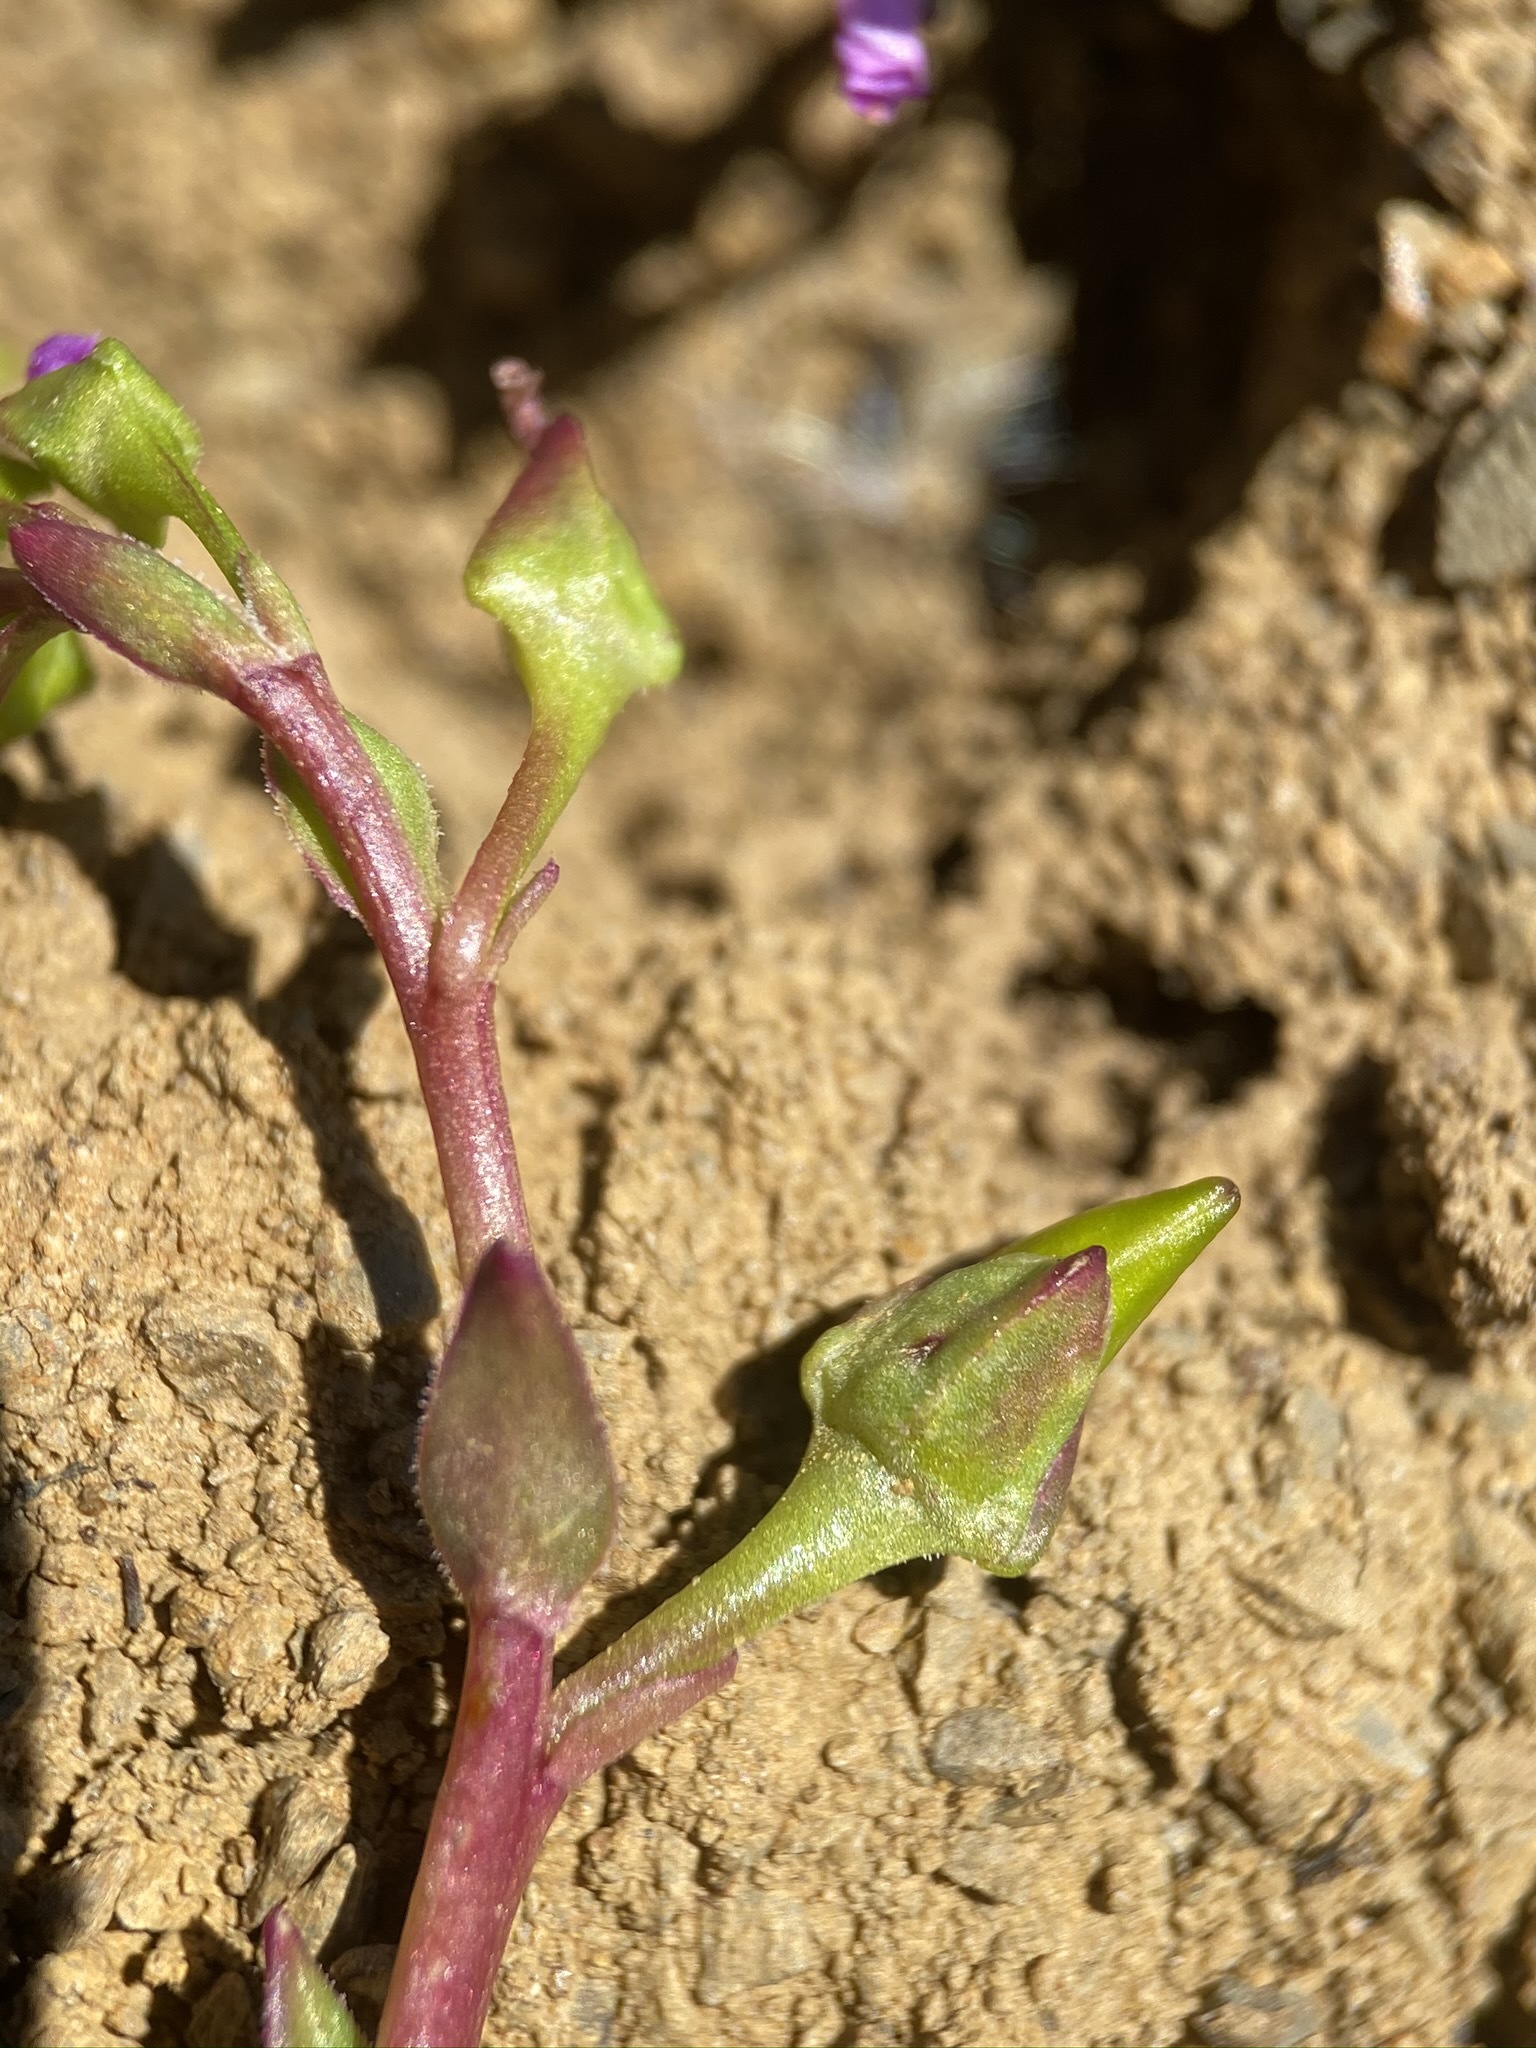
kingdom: Plantae
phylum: Tracheophyta
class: Magnoliopsida
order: Caryophyllales
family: Montiaceae
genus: Calandrinia
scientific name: Calandrinia breweri
